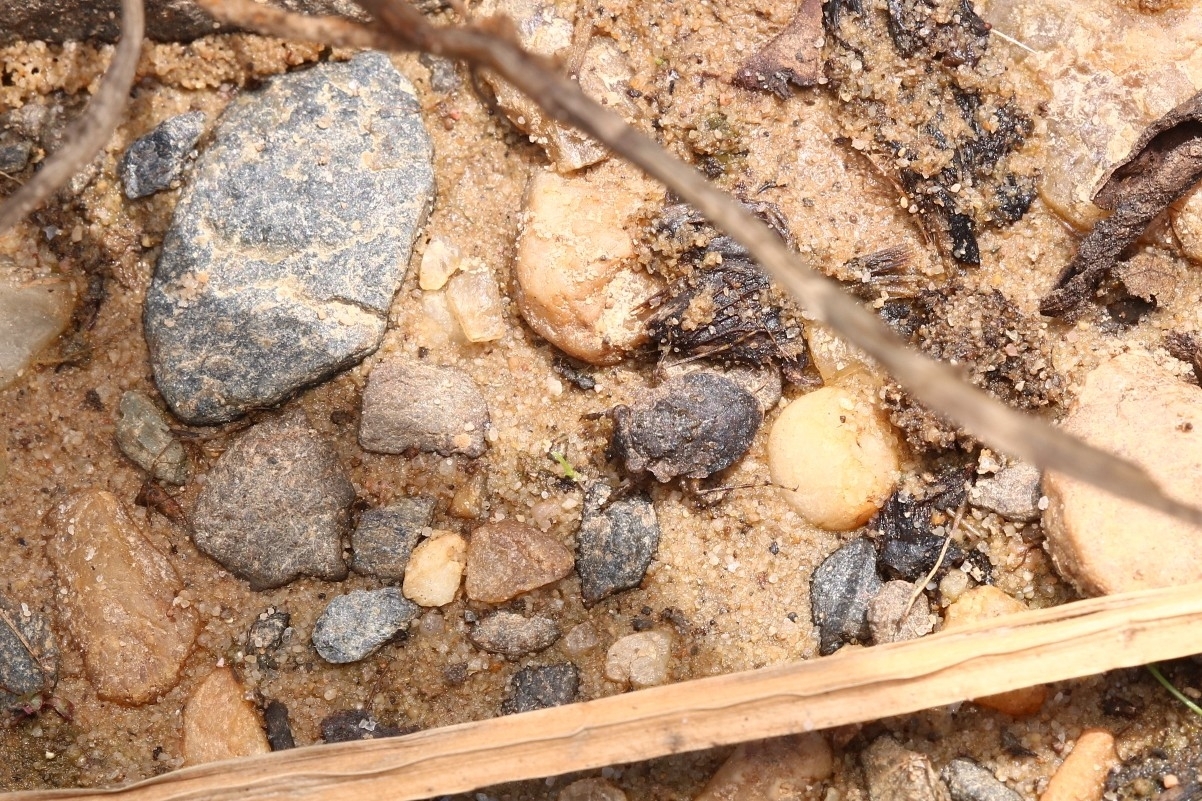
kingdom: Animalia
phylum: Arthropoda
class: Insecta
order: Hemiptera
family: Gelastocoridae
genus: Gelastocoris
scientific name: Gelastocoris oculatus
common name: Toad bug
